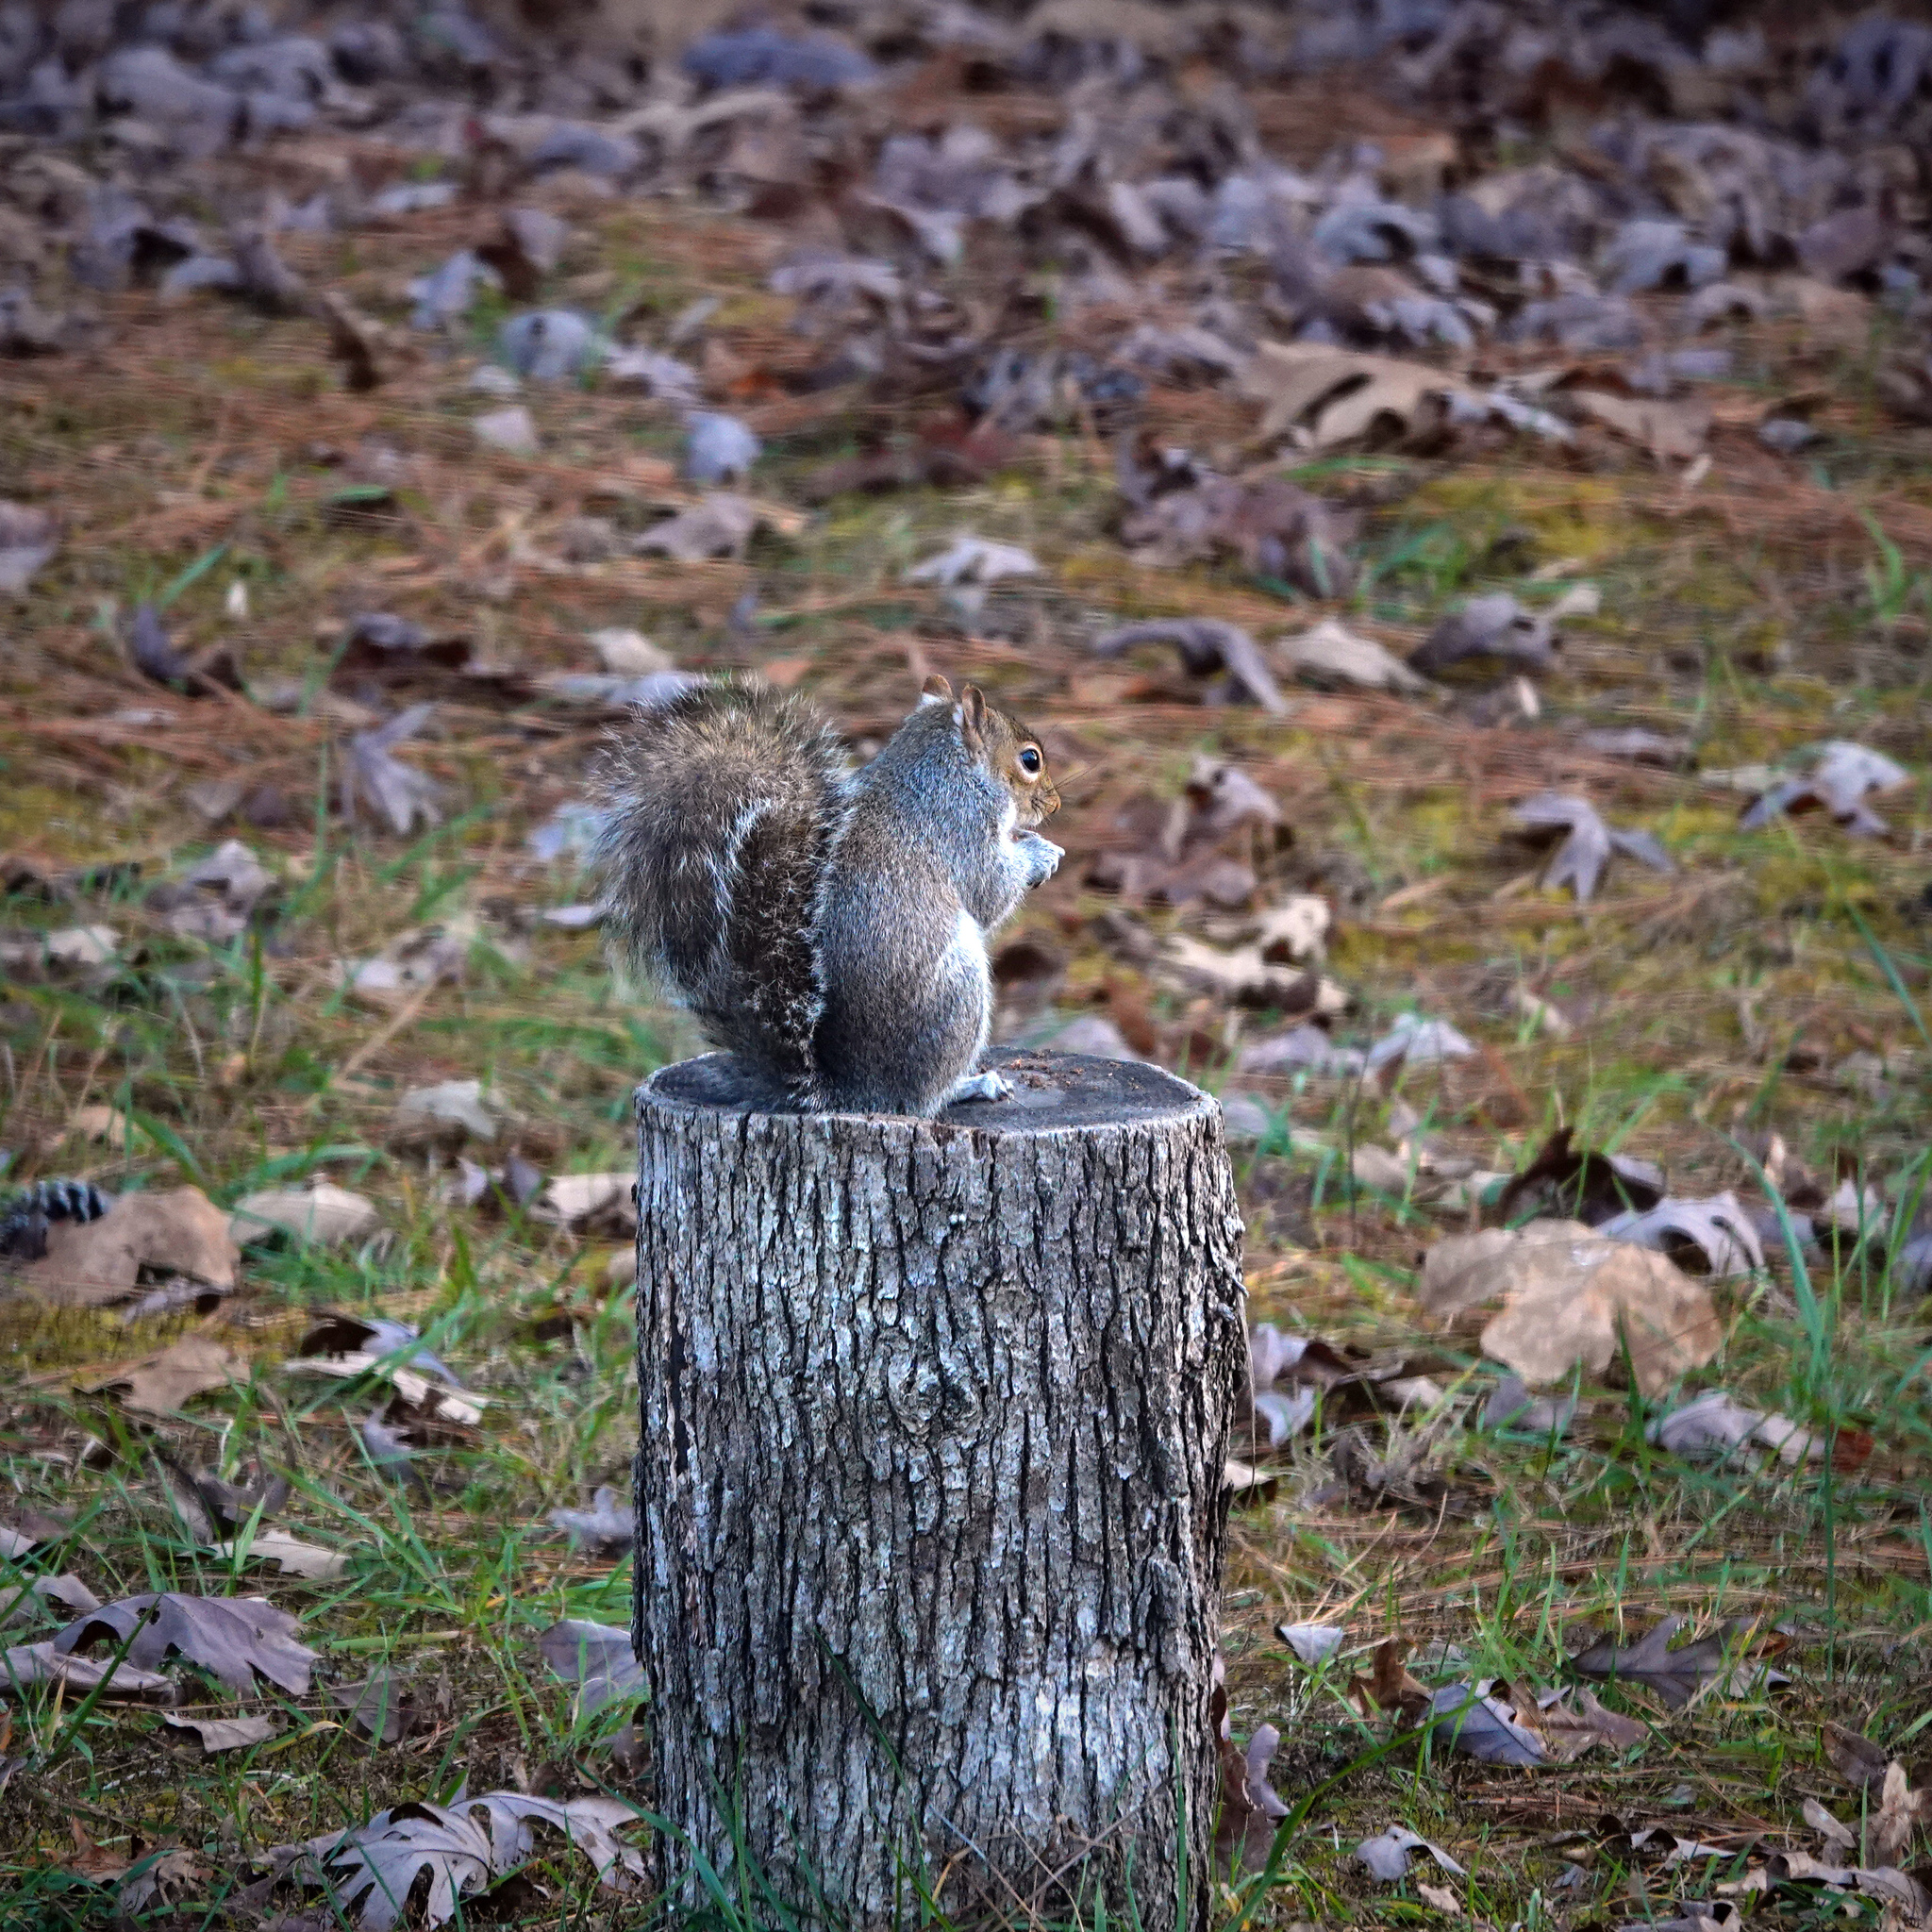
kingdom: Animalia
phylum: Chordata
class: Mammalia
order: Rodentia
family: Sciuridae
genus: Sciurus
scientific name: Sciurus carolinensis
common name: Eastern gray squirrel
